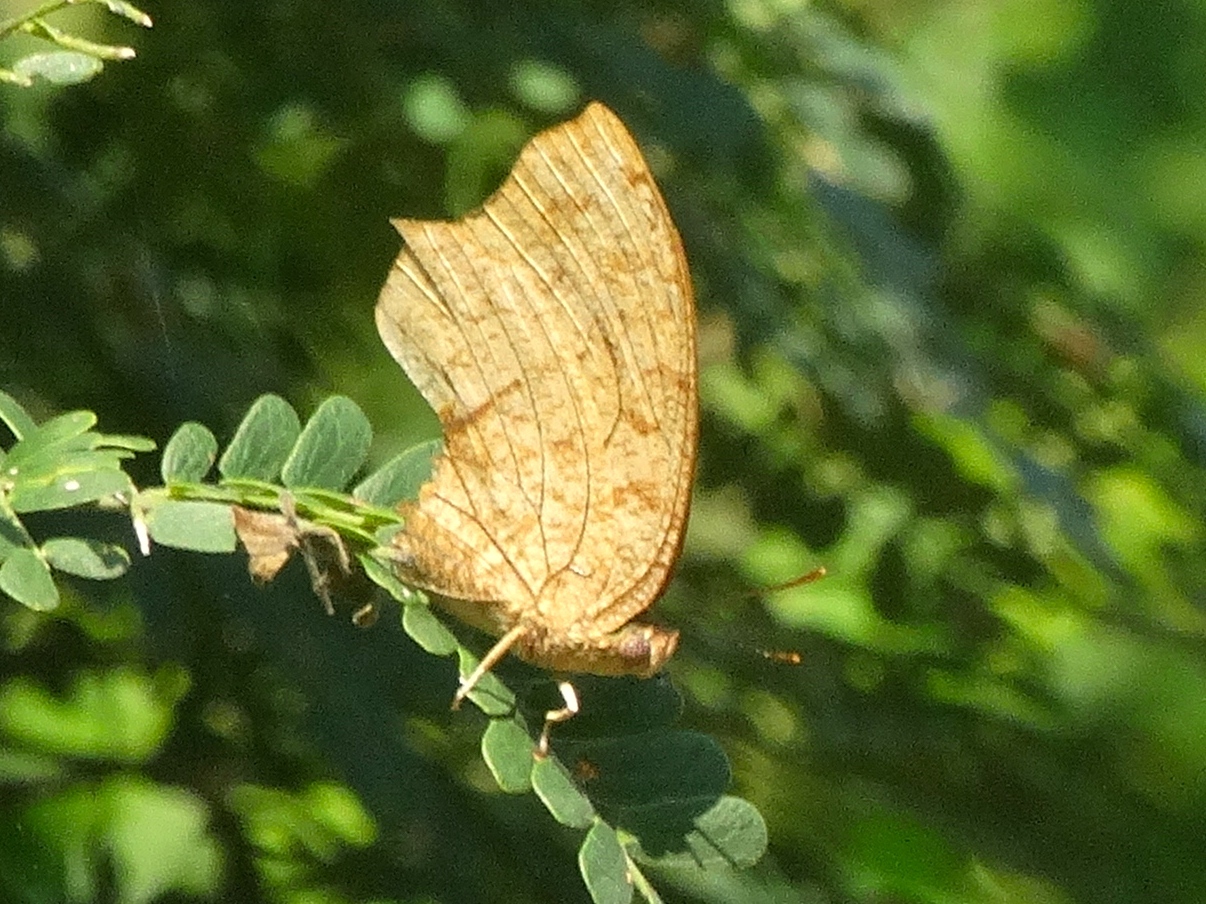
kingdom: Animalia
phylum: Arthropoda
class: Insecta
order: Lepidoptera
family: Nymphalidae
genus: Fountainea
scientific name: Fountainea
